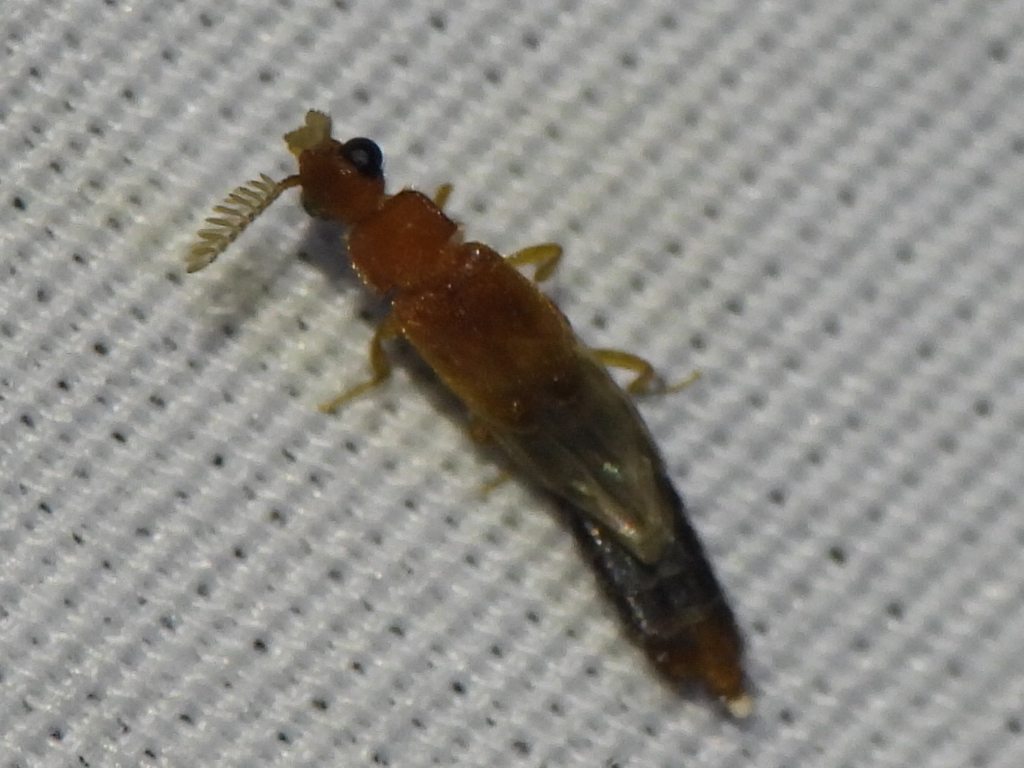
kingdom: Animalia
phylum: Arthropoda
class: Insecta
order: Coleoptera
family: Phengodidae
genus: Distremocephalus
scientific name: Distremocephalus texanus
